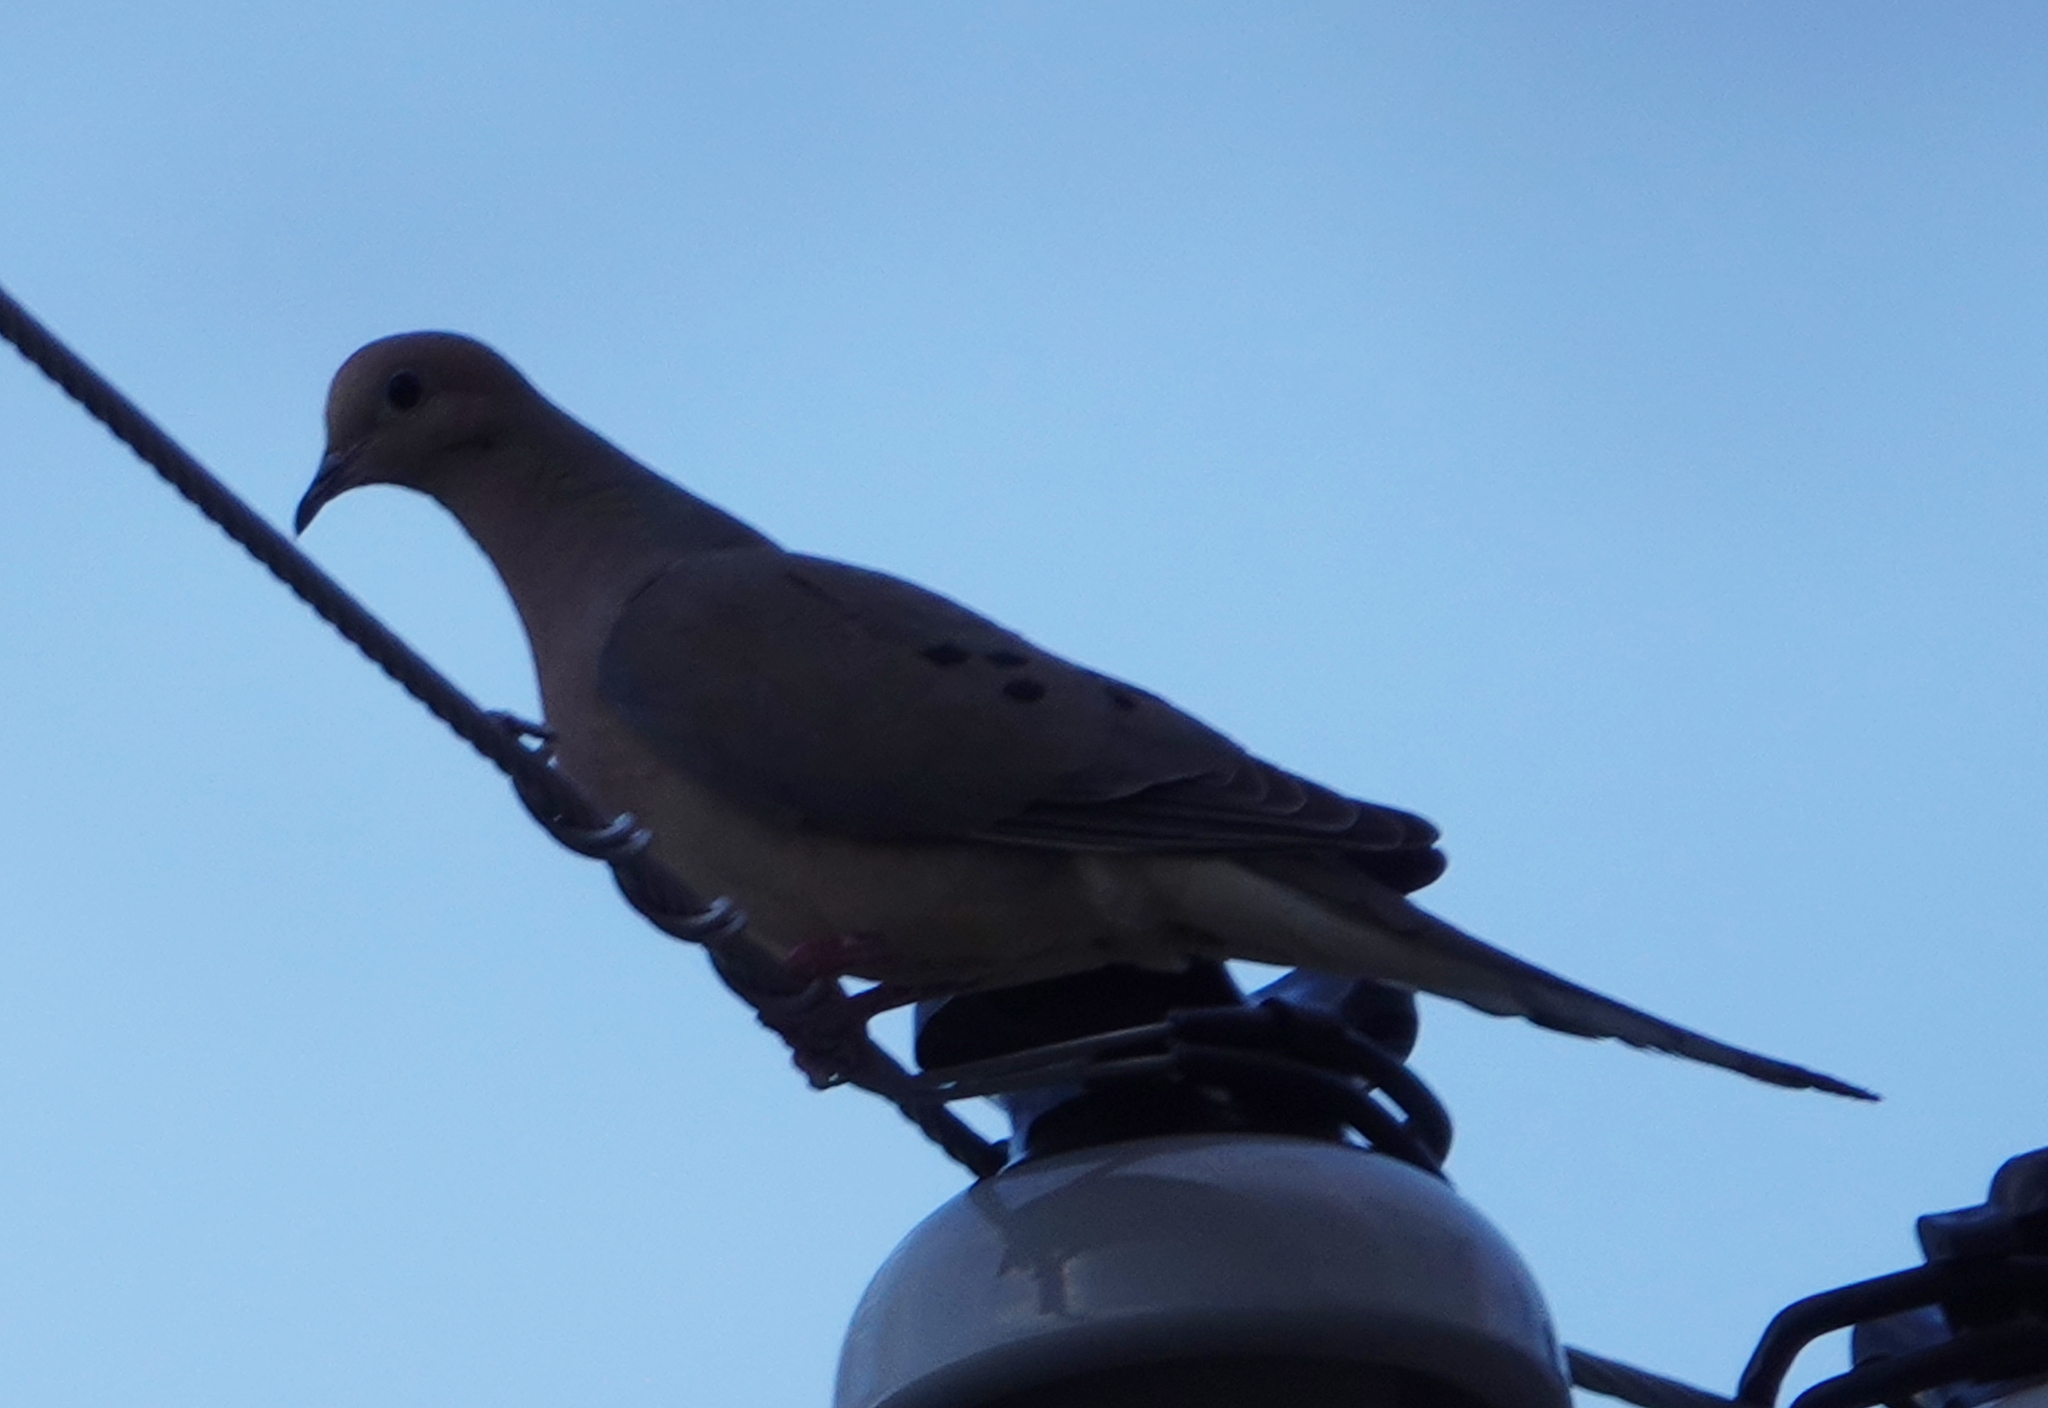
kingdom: Animalia
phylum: Chordata
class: Aves
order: Columbiformes
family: Columbidae
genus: Zenaida
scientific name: Zenaida macroura
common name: Mourning dove
